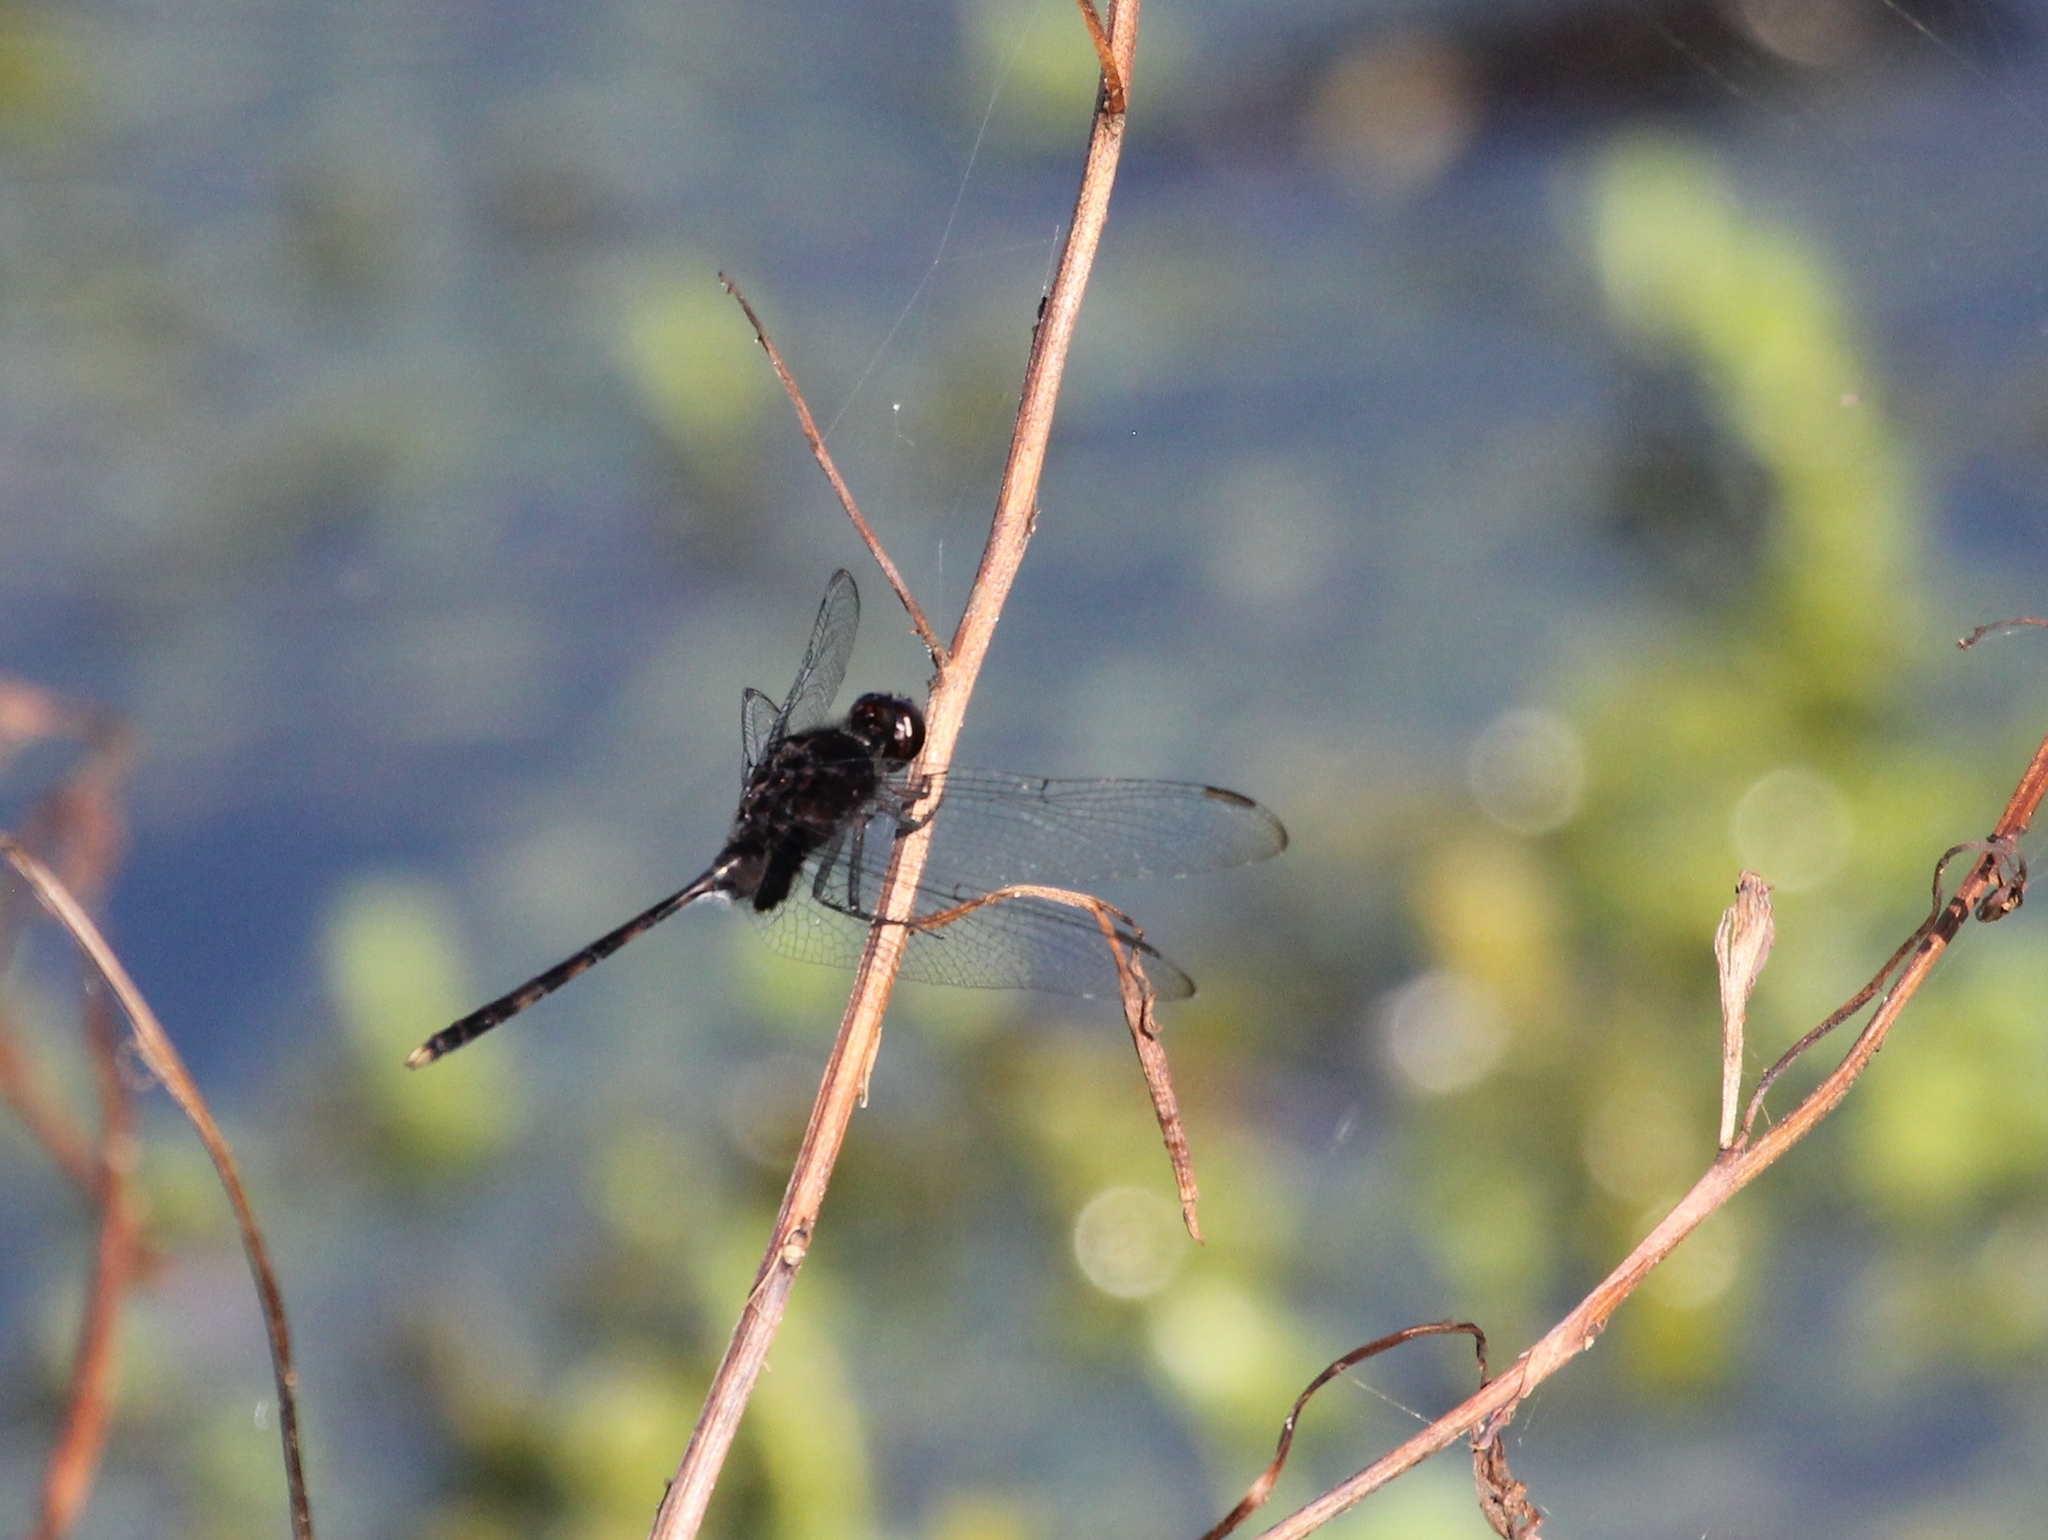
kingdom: Animalia
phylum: Arthropoda
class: Insecta
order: Odonata
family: Libellulidae
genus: Erythemis
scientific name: Erythemis plebeja
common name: Pin-tailed pondhawk
